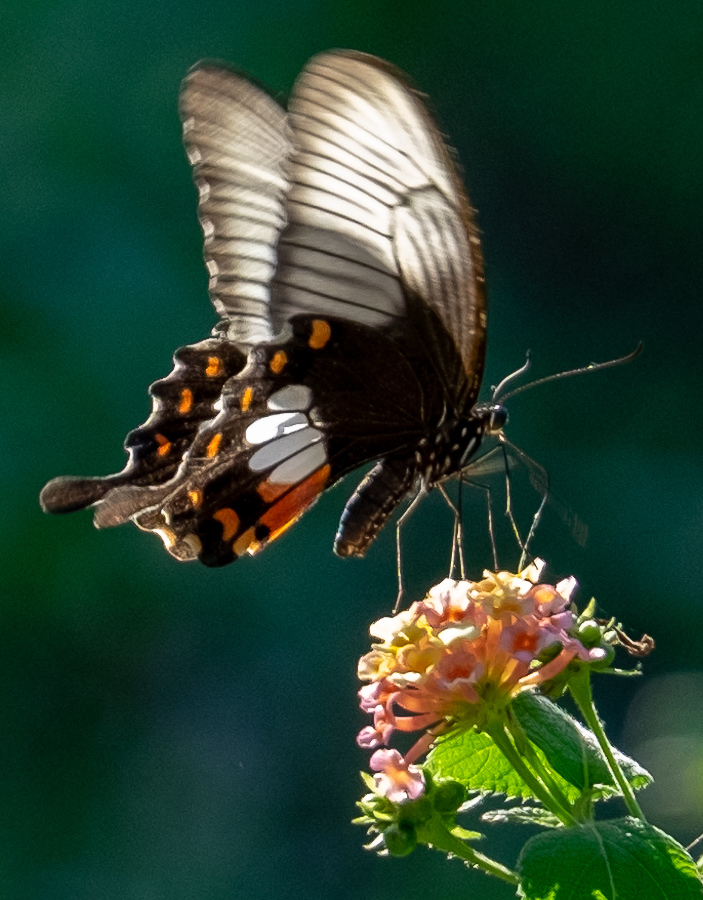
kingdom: Animalia
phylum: Arthropoda
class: Insecta
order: Lepidoptera
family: Papilionidae
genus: Papilio
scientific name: Papilio polytes
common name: Common mormon
